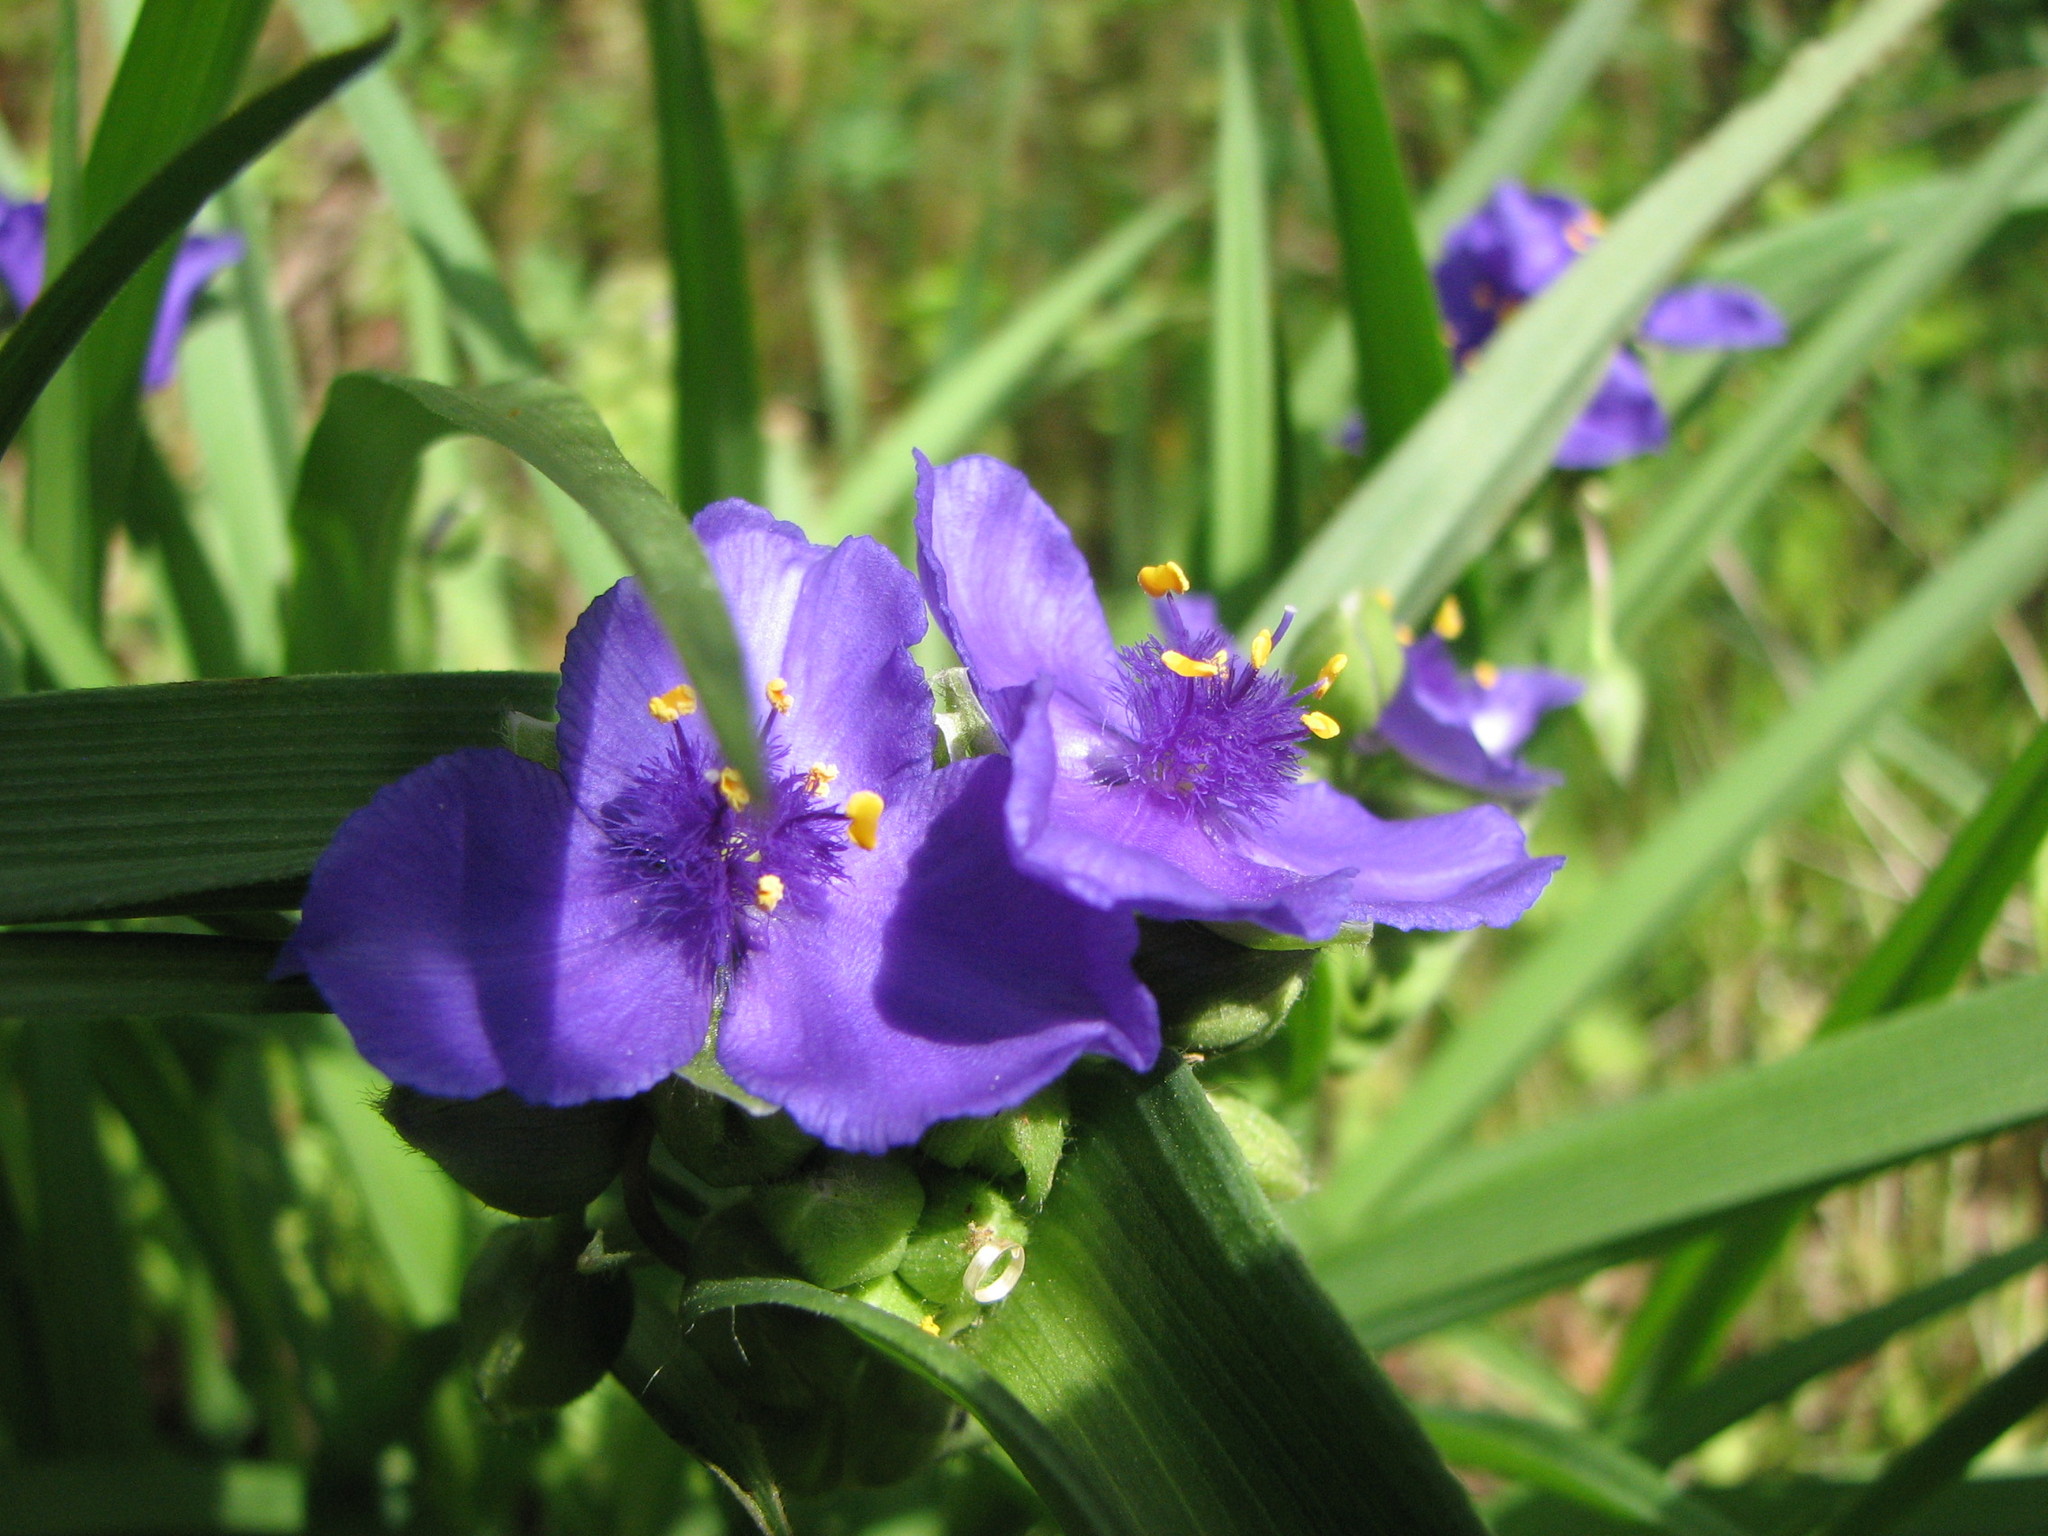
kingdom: Plantae
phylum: Tracheophyta
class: Liliopsida
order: Commelinales
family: Commelinaceae
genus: Tradescantia
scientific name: Tradescantia virginiana
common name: Spiderwort
